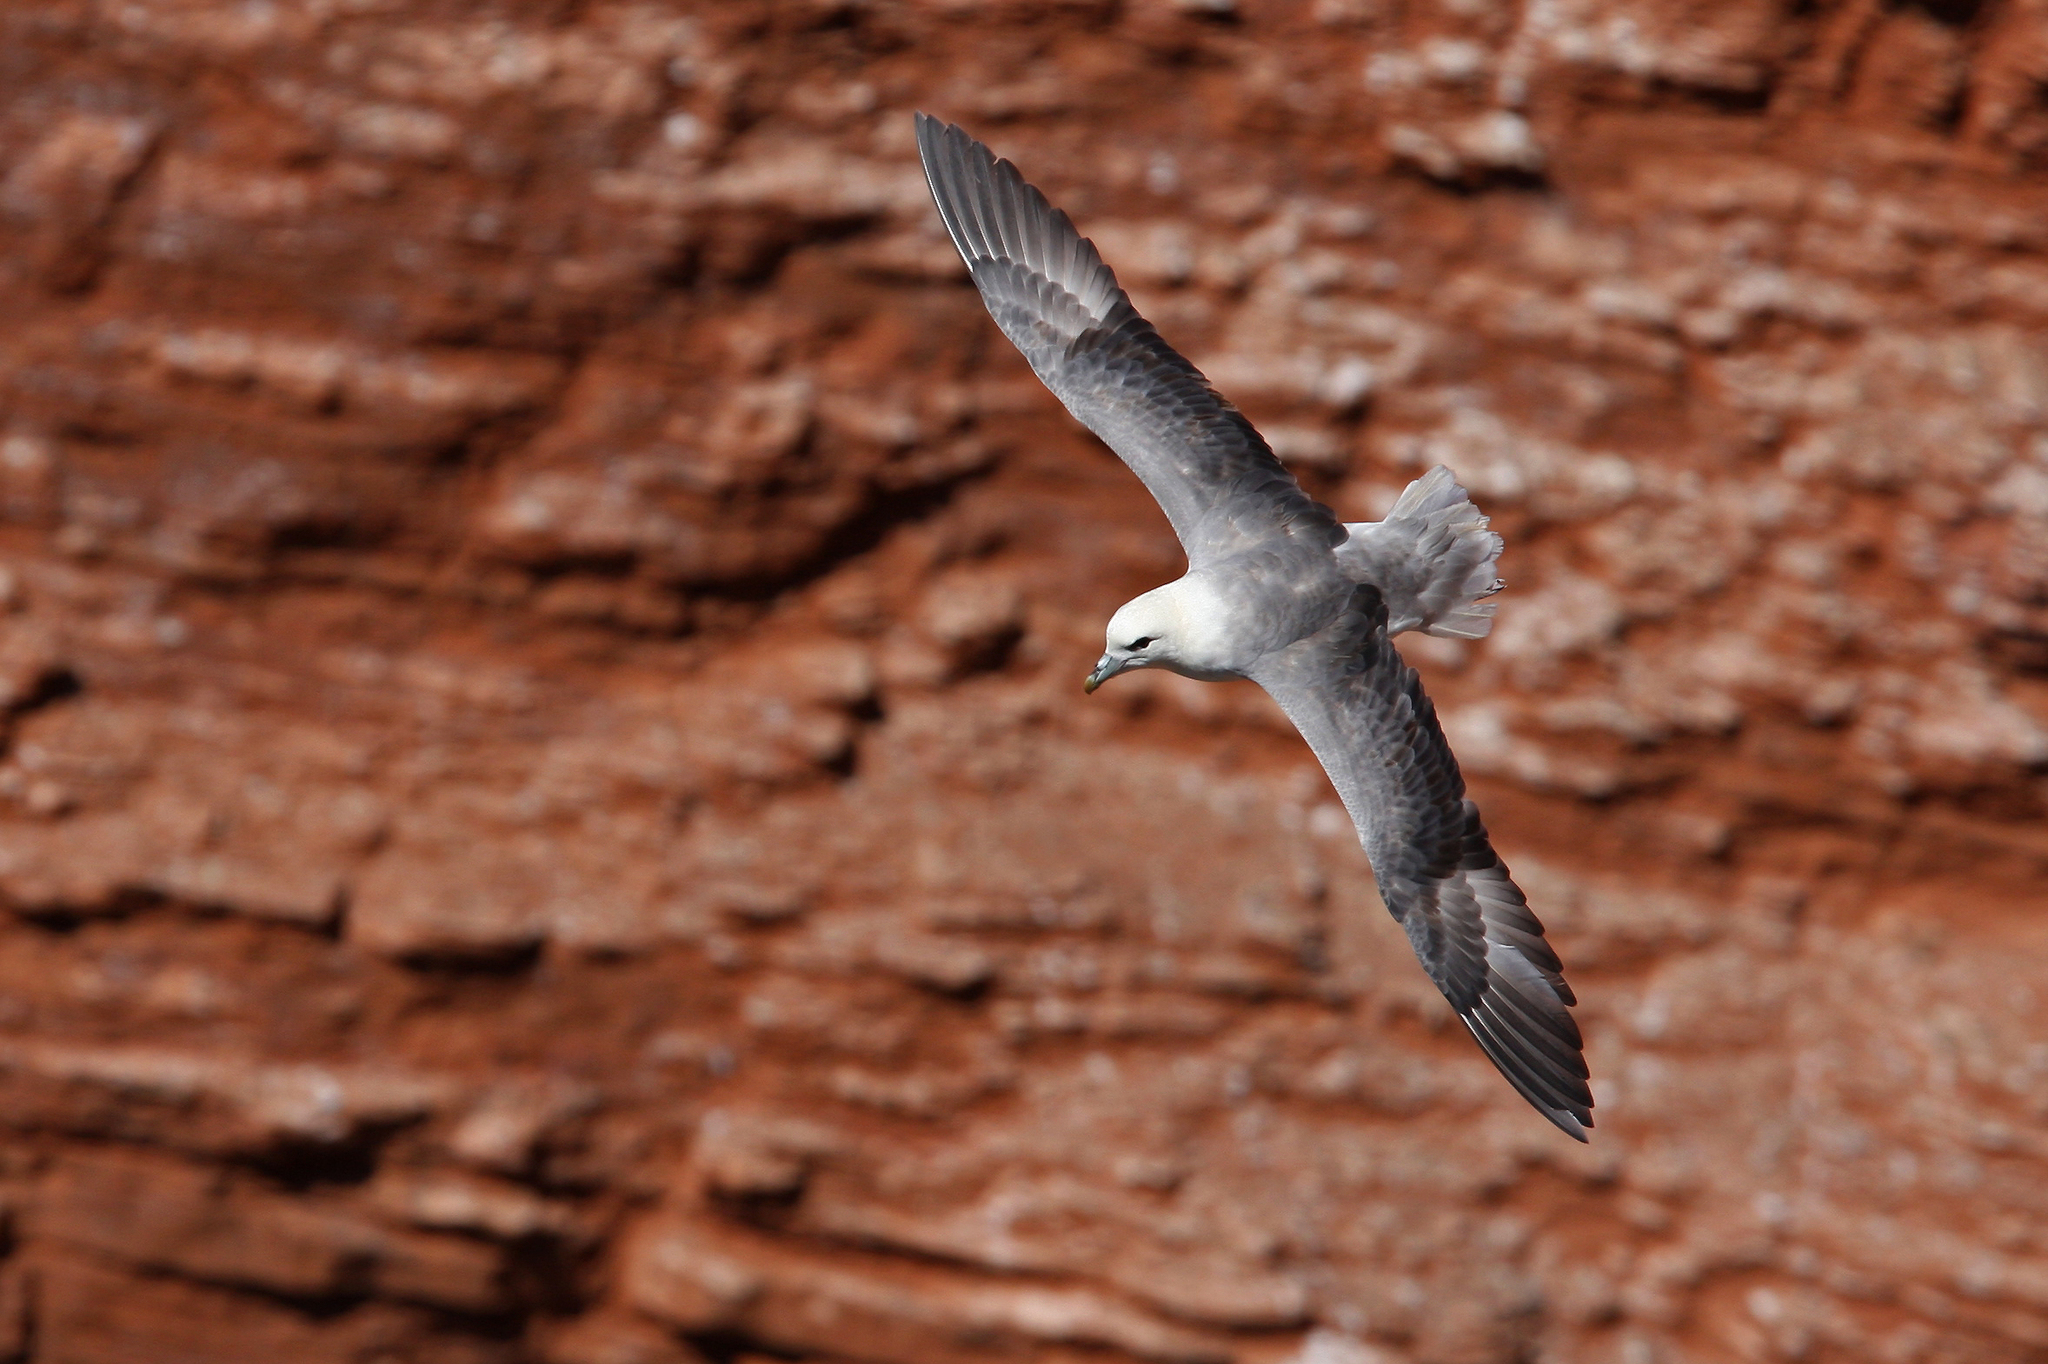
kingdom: Animalia
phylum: Chordata
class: Aves
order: Procellariiformes
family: Procellariidae
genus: Fulmarus
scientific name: Fulmarus glacialis
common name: Northern fulmar
